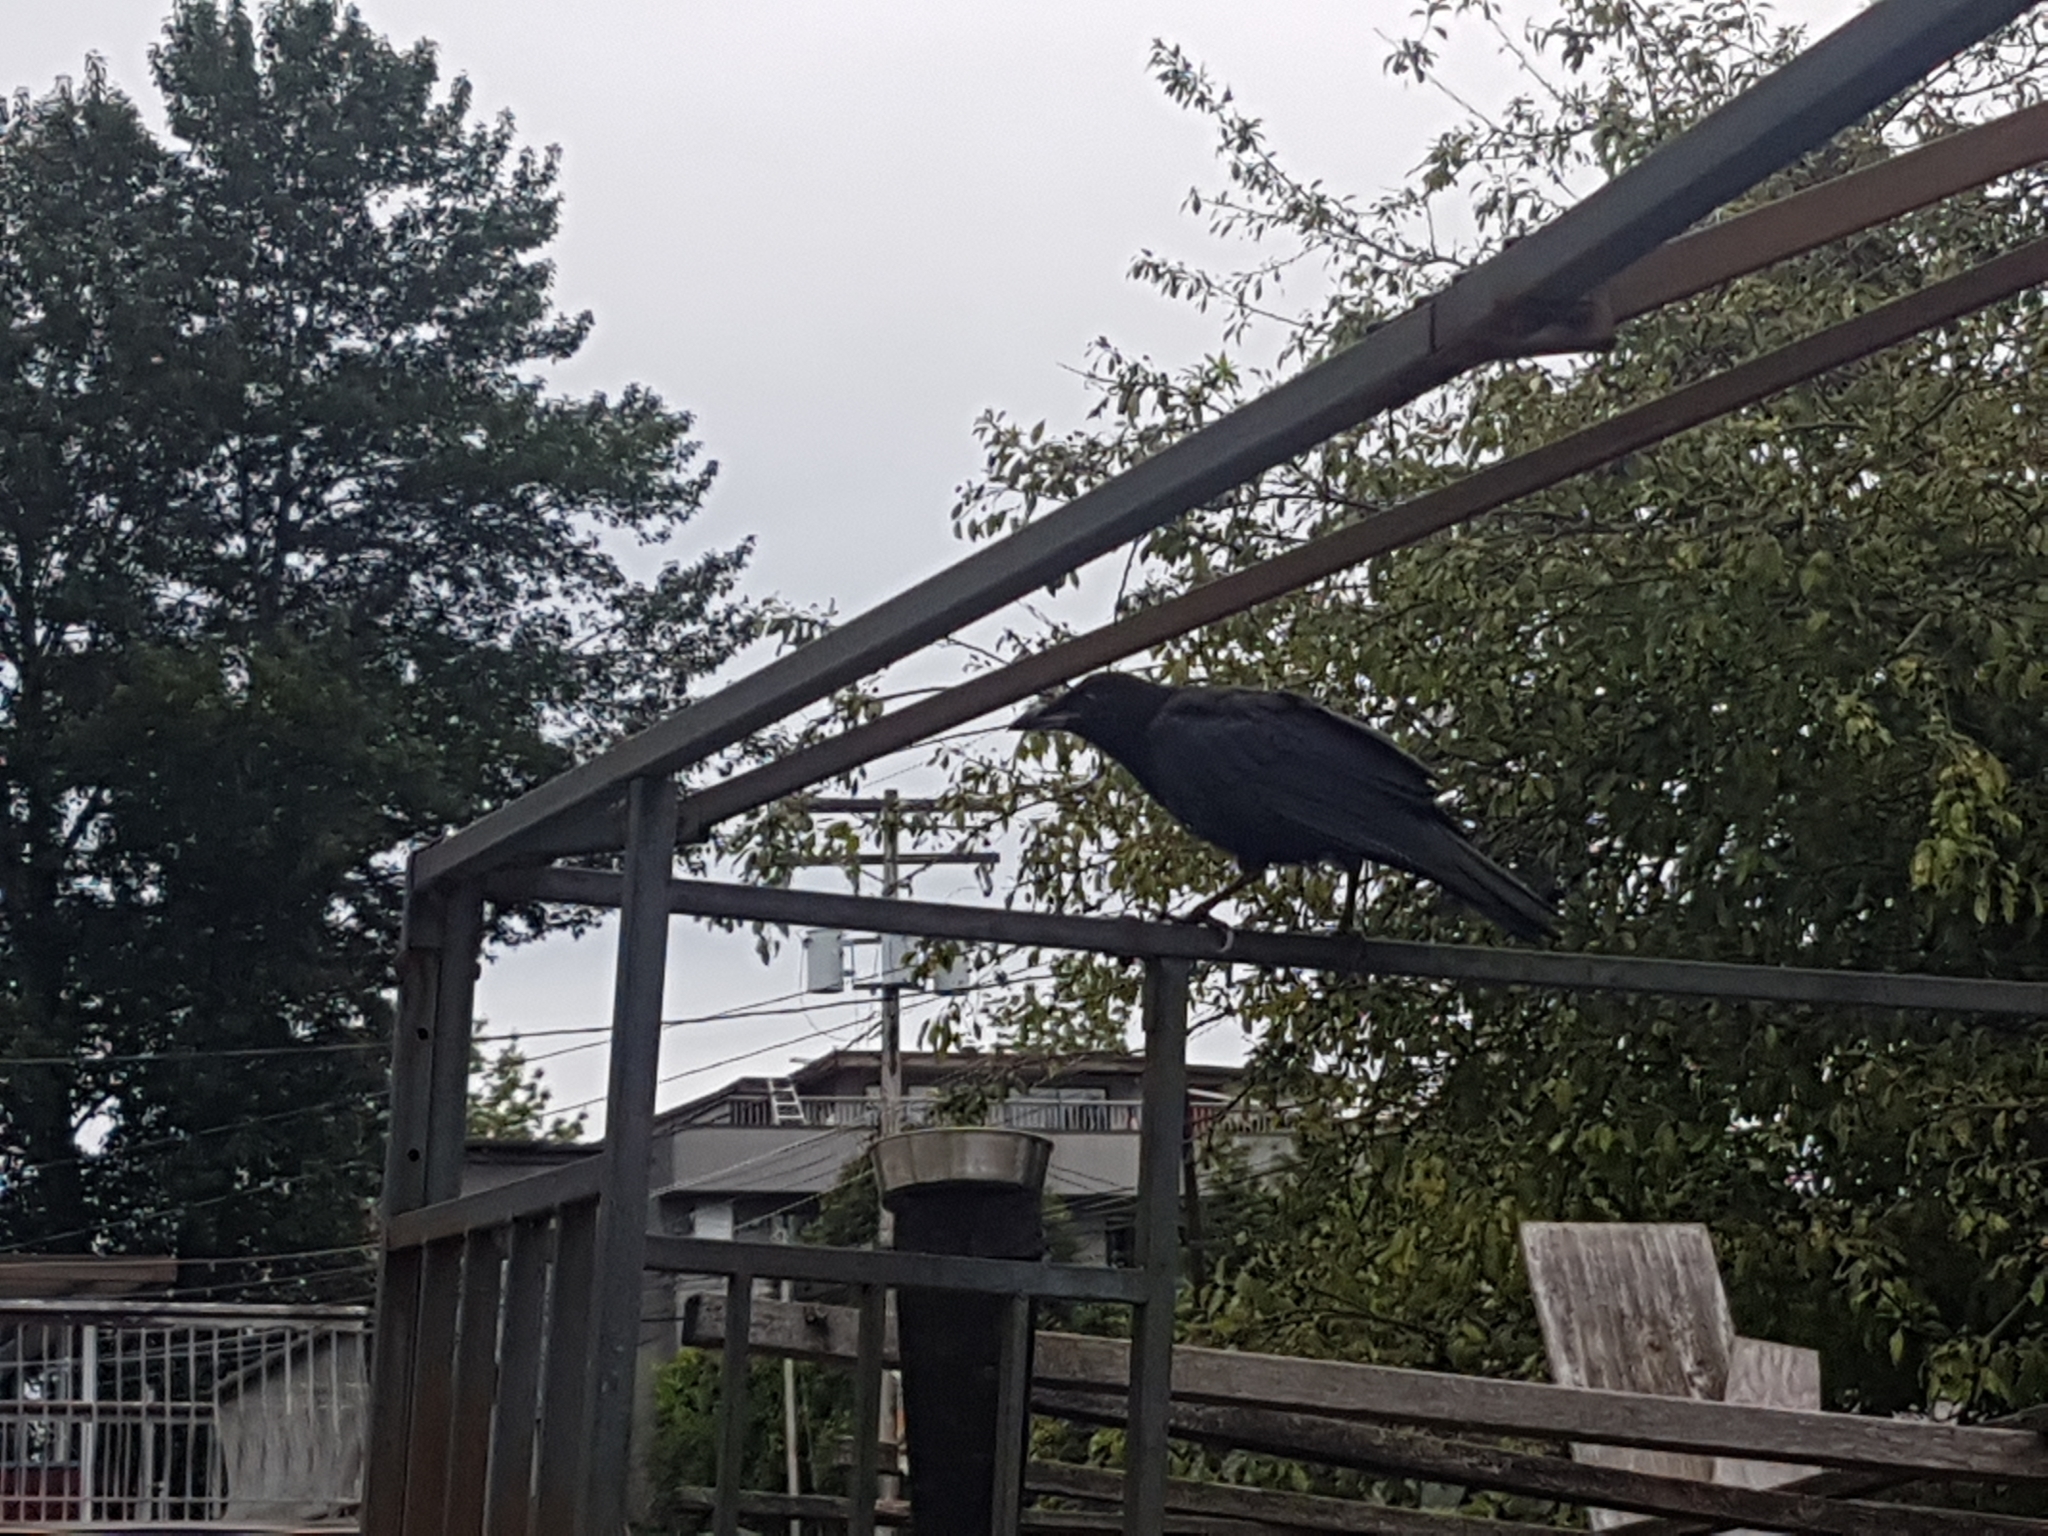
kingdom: Animalia
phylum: Chordata
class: Aves
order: Passeriformes
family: Corvidae
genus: Corvus
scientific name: Corvus brachyrhynchos
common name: American crow
